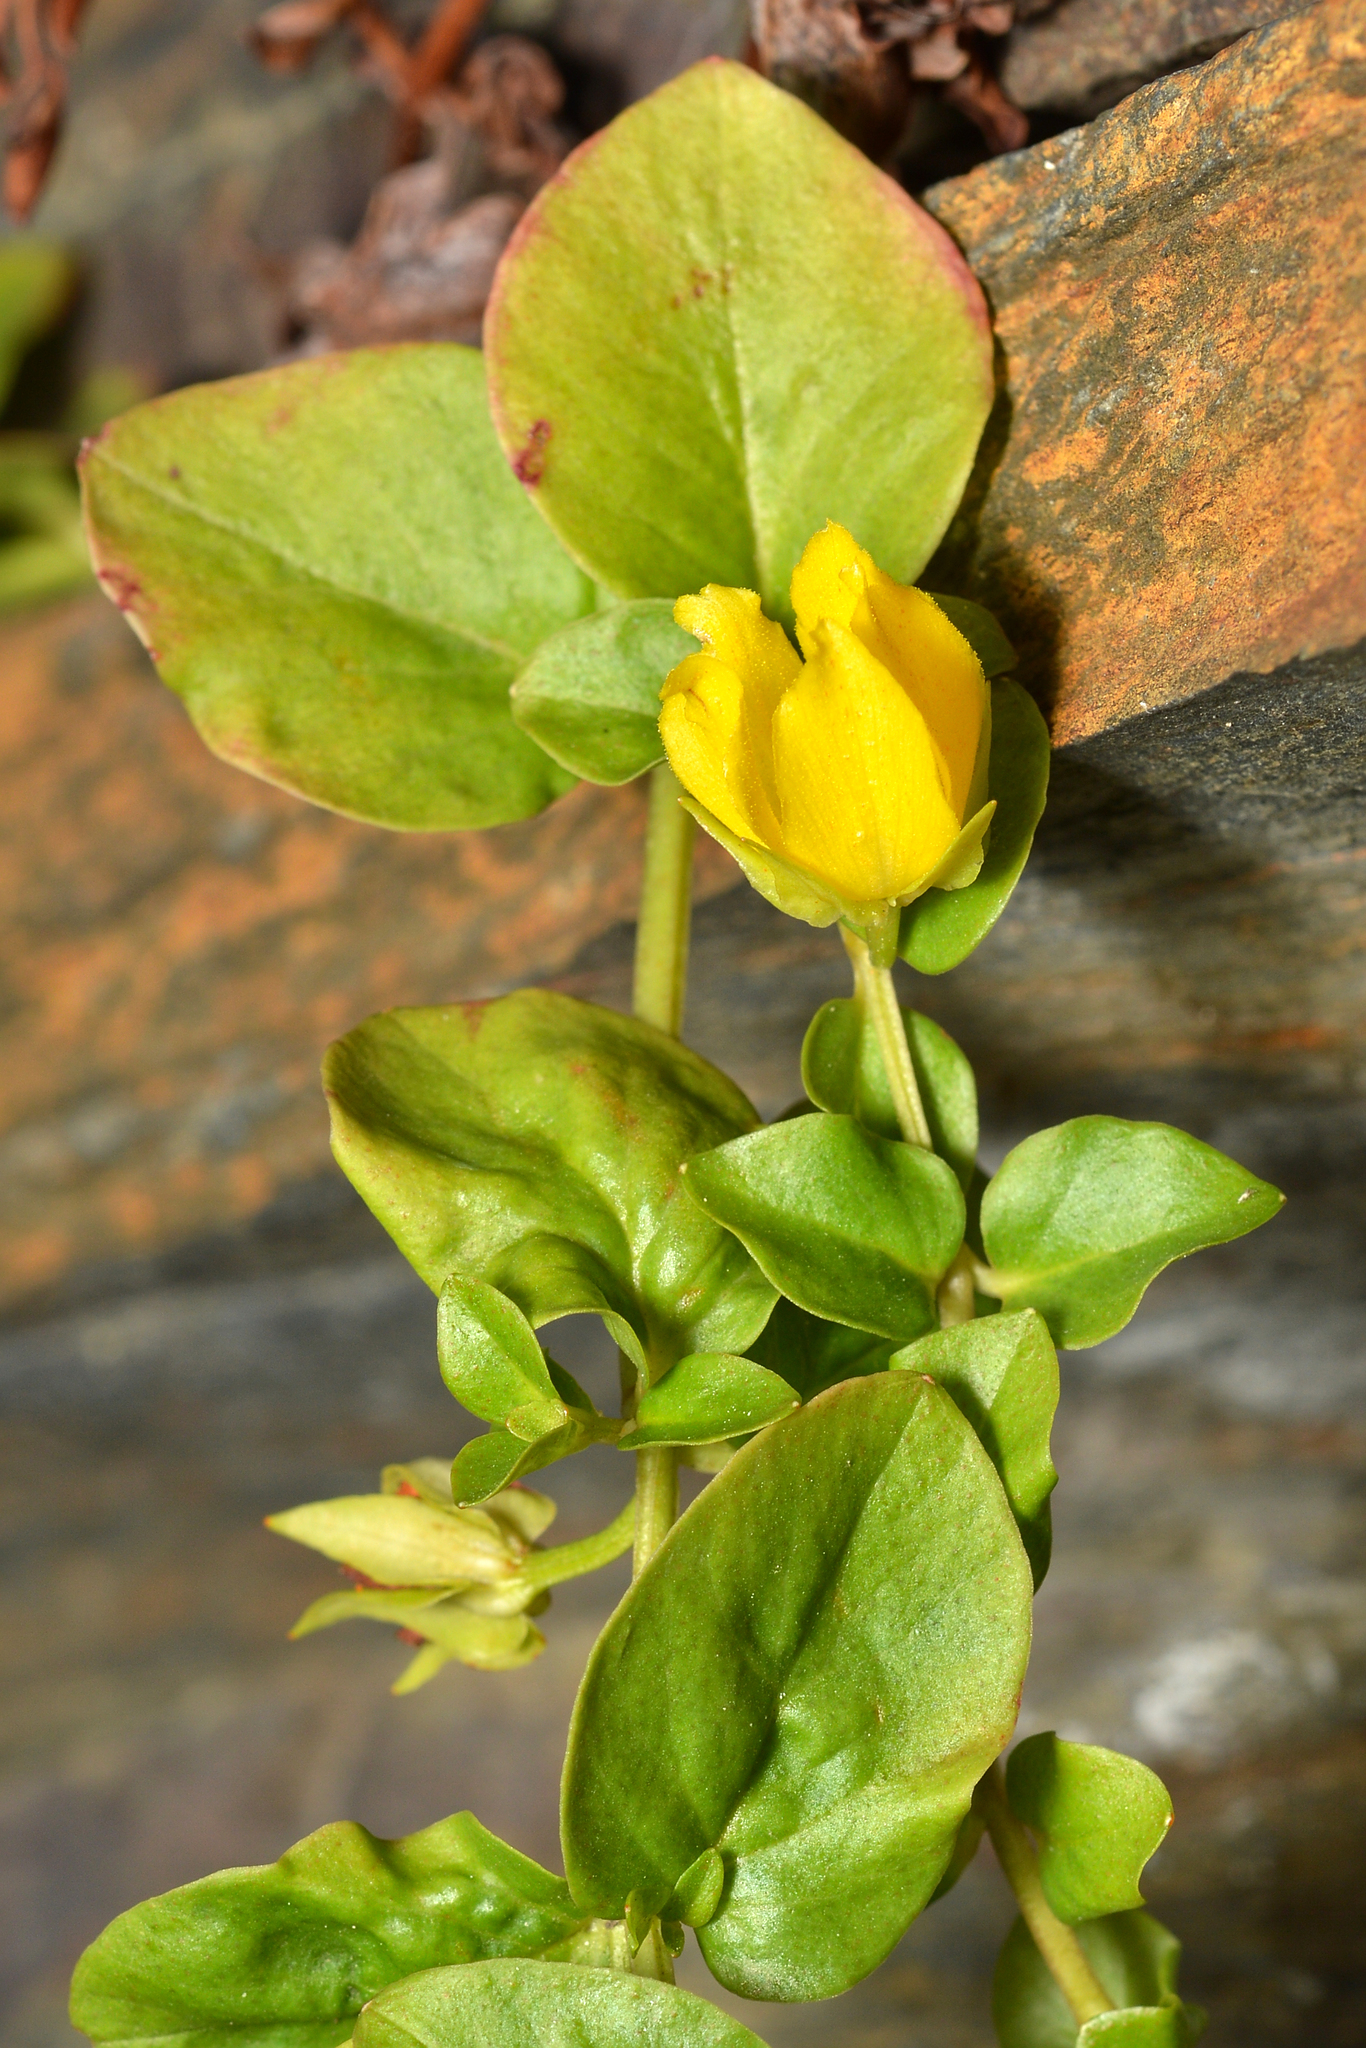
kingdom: Plantae
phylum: Tracheophyta
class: Magnoliopsida
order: Ericales
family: Primulaceae
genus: Lysimachia
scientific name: Lysimachia nummularia
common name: Moneywort
